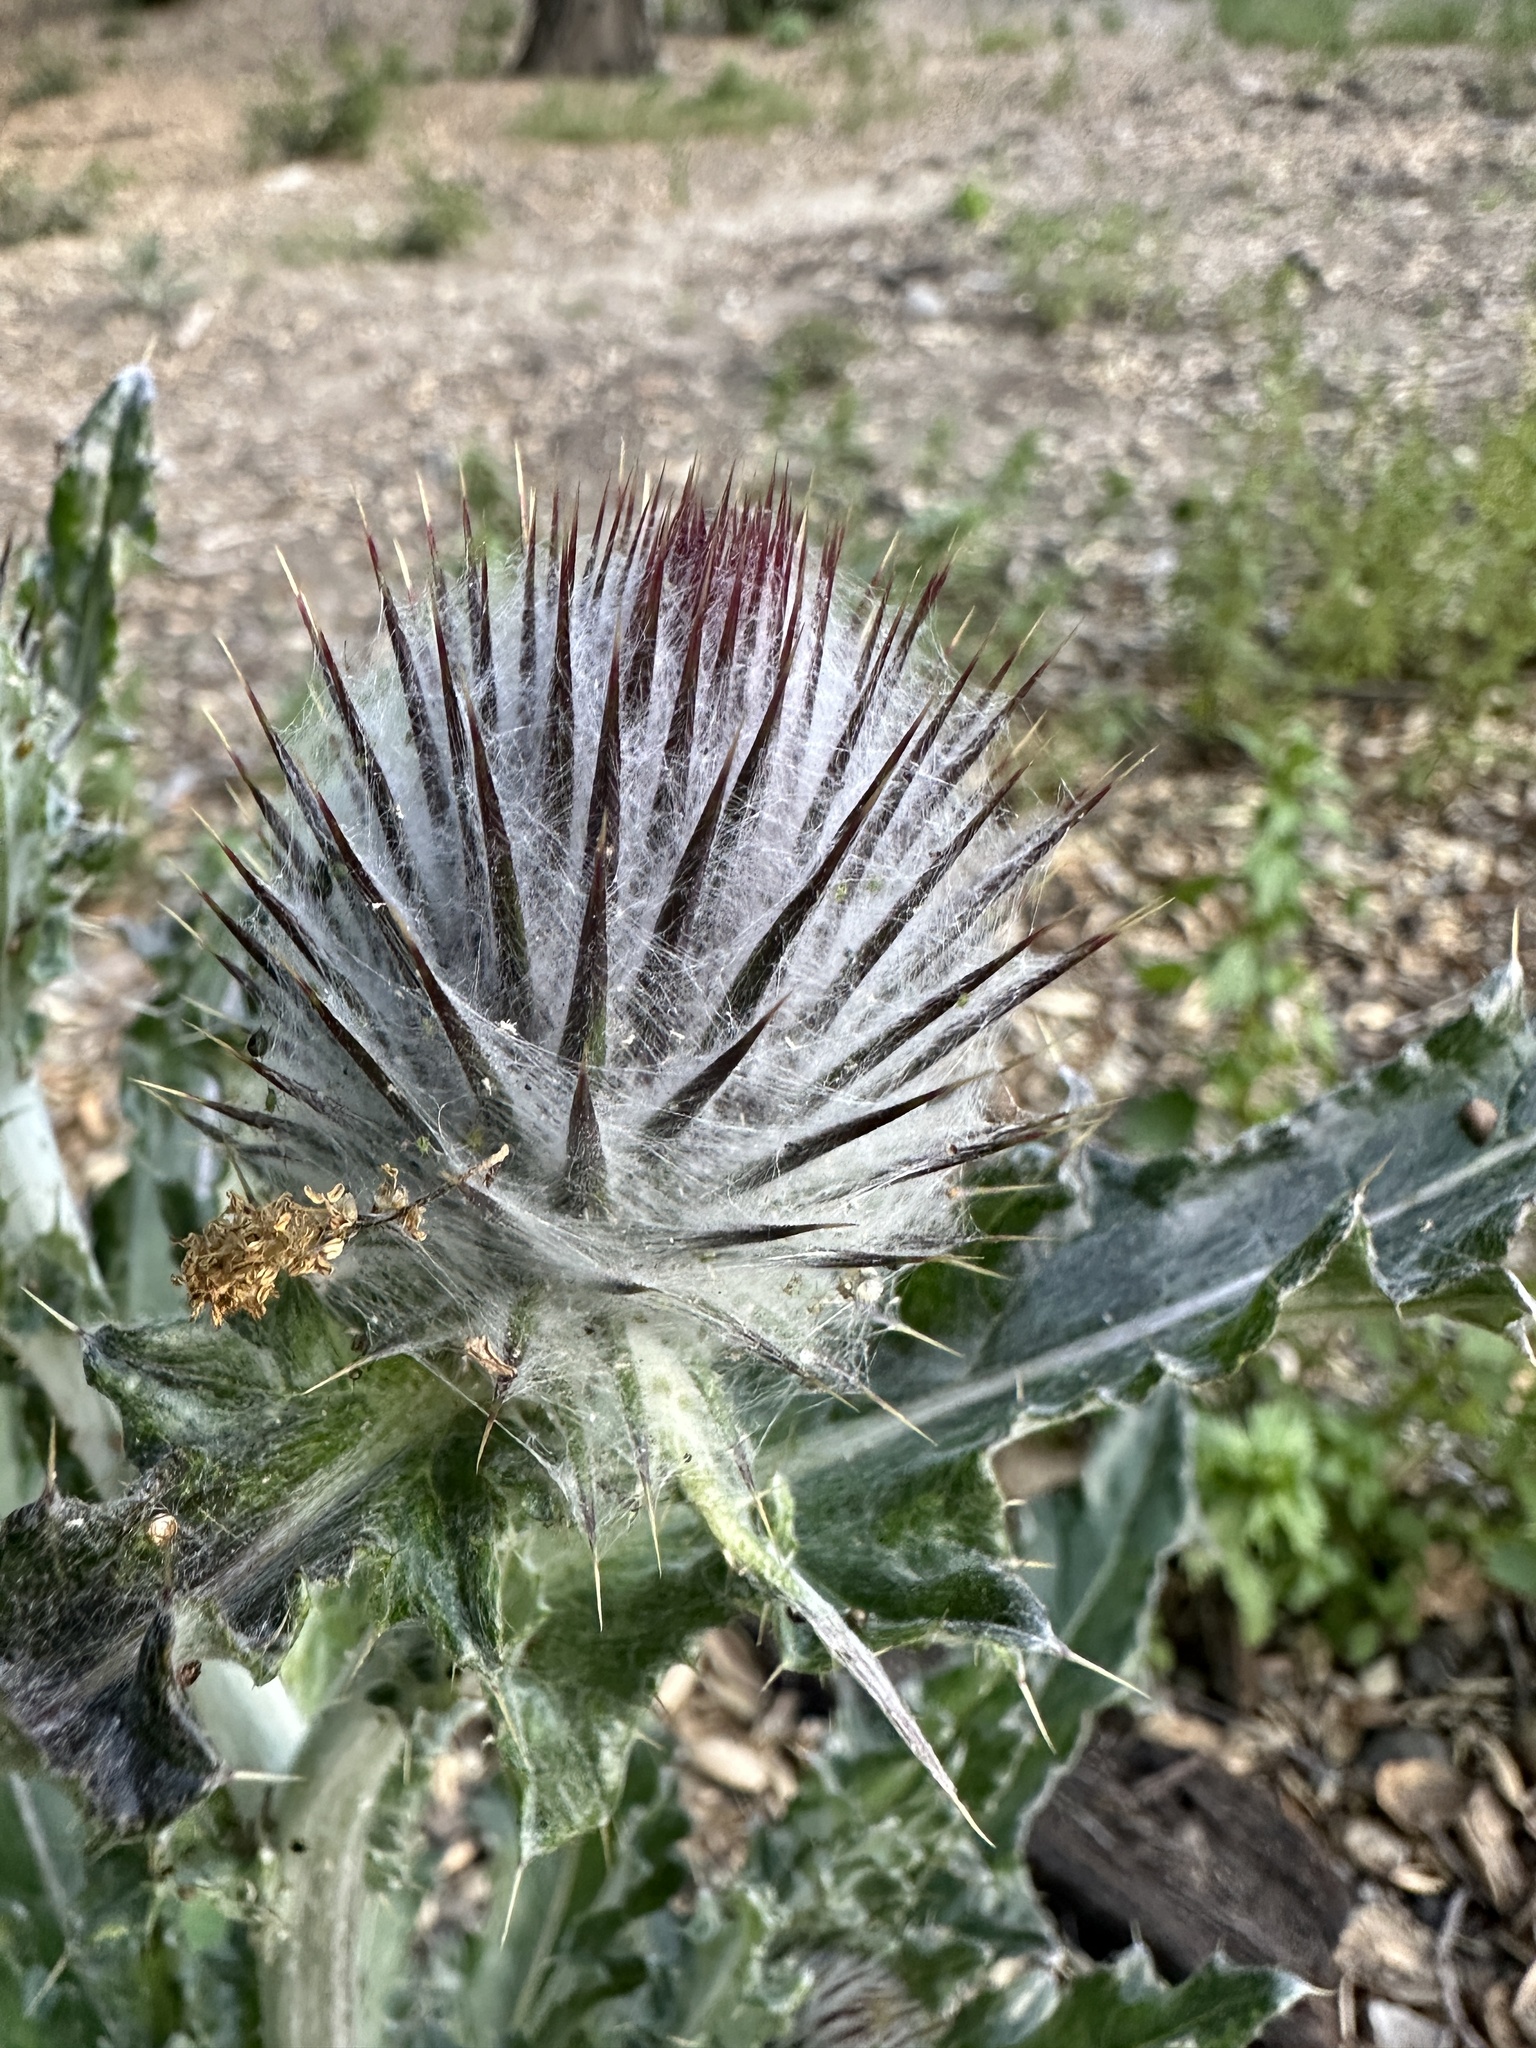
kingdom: Plantae
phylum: Tracheophyta
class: Magnoliopsida
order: Asterales
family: Asteraceae
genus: Cirsium
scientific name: Cirsium occidentale
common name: Western thistle
